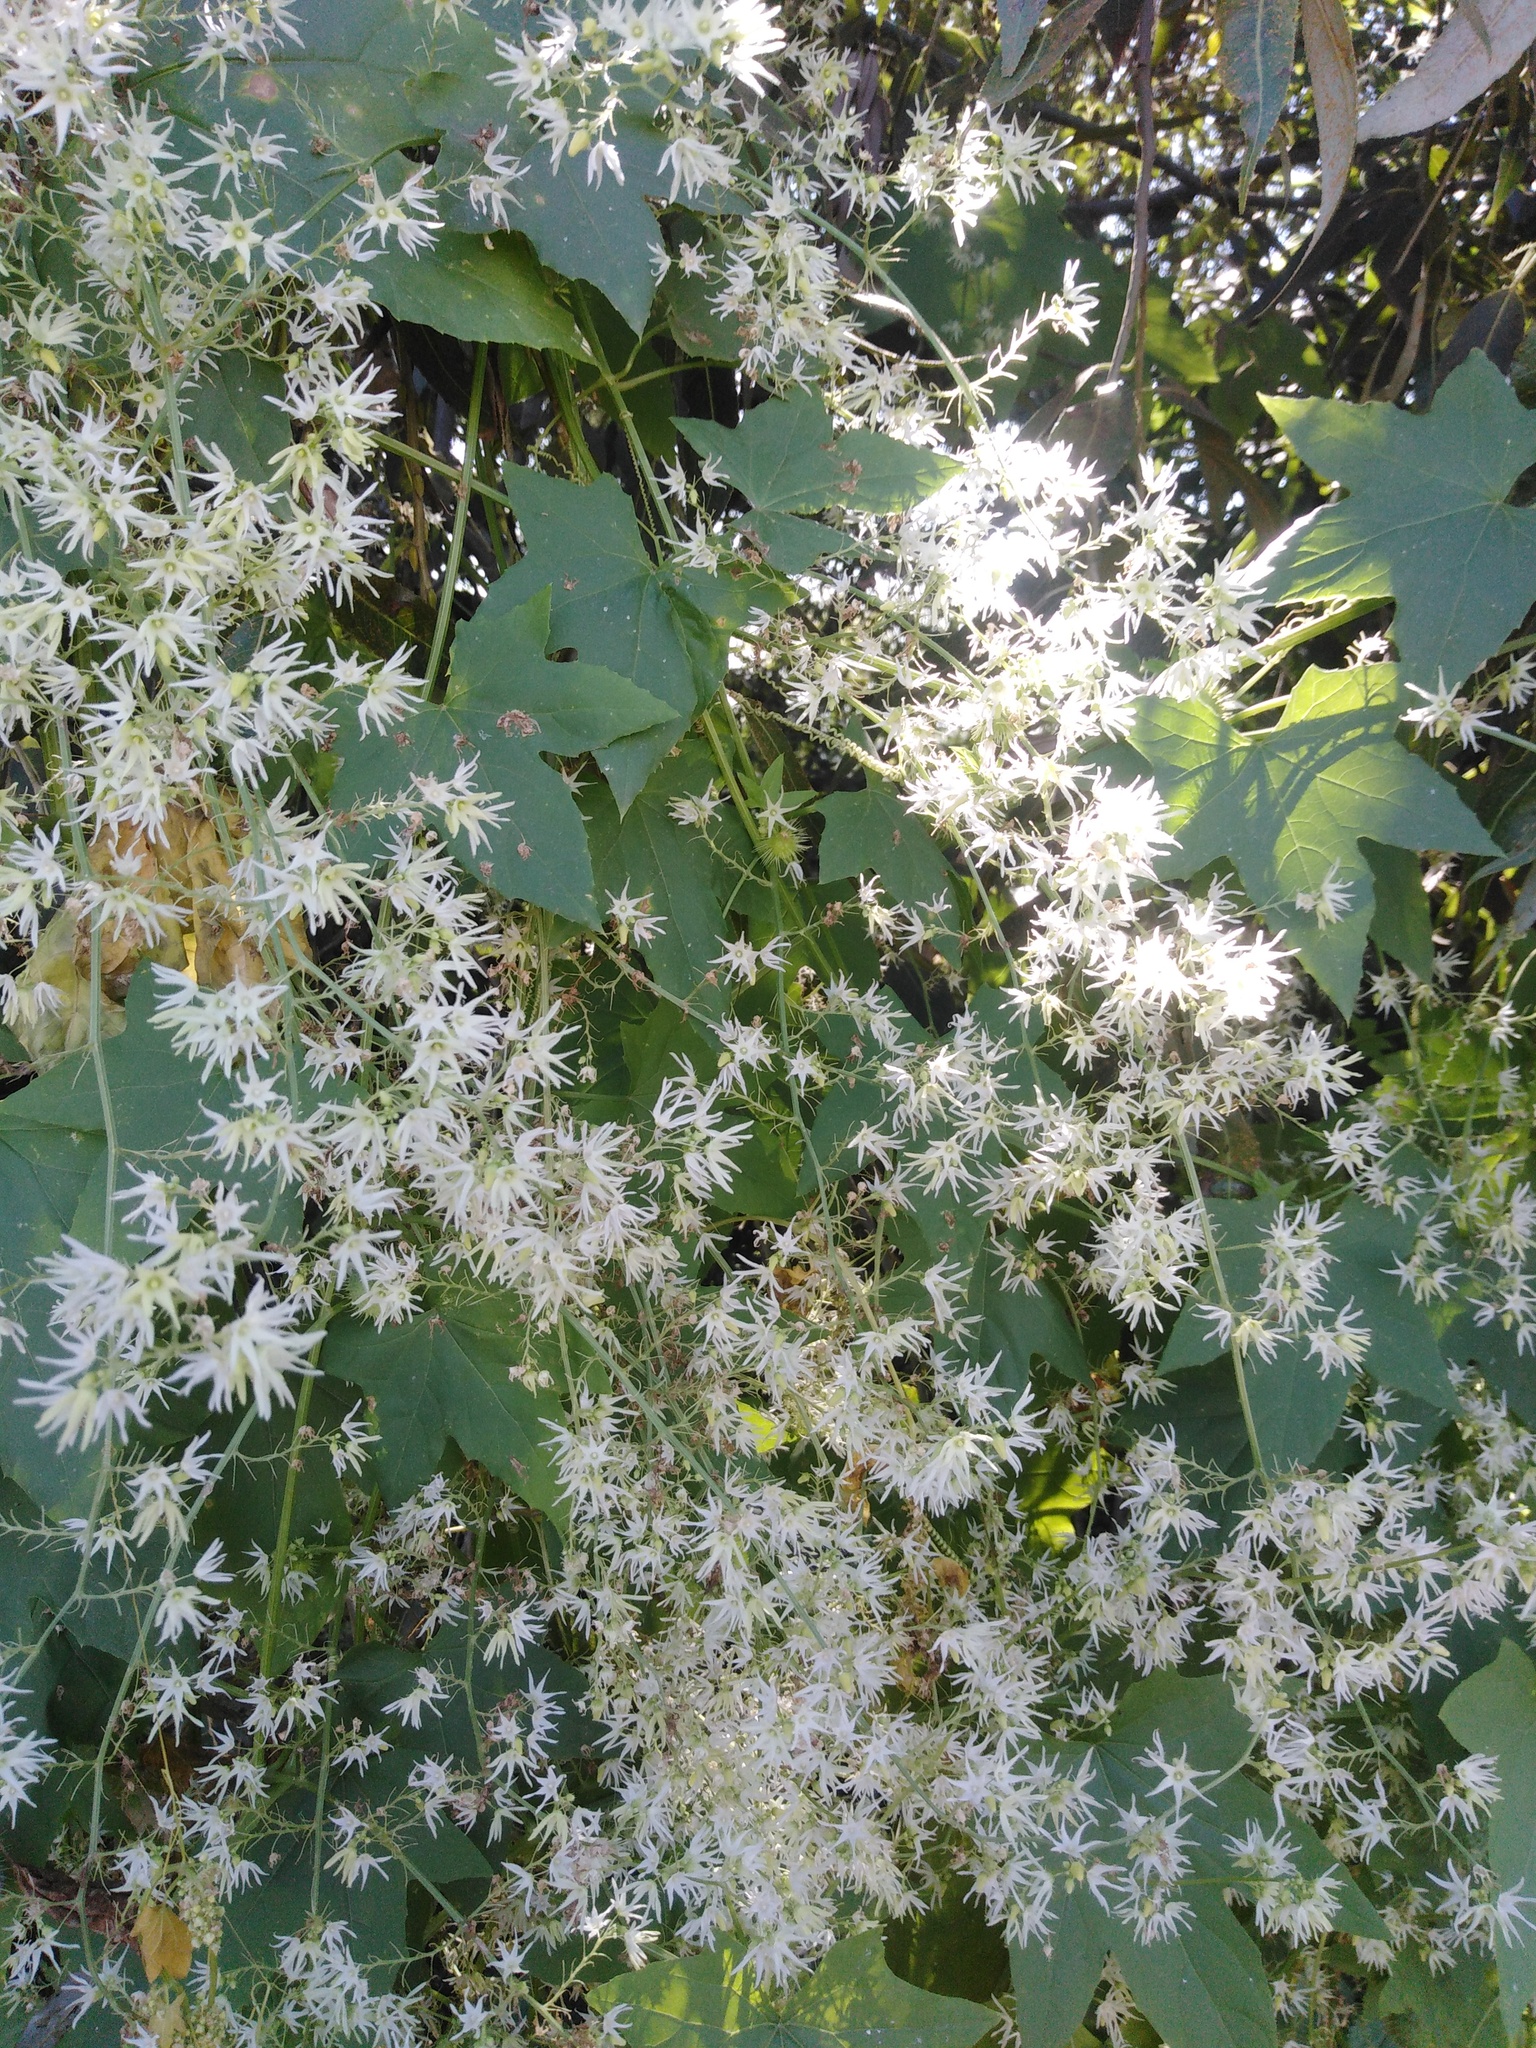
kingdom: Plantae
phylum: Tracheophyta
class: Magnoliopsida
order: Cucurbitales
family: Cucurbitaceae
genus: Echinocystis
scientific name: Echinocystis lobata
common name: Wild cucumber
